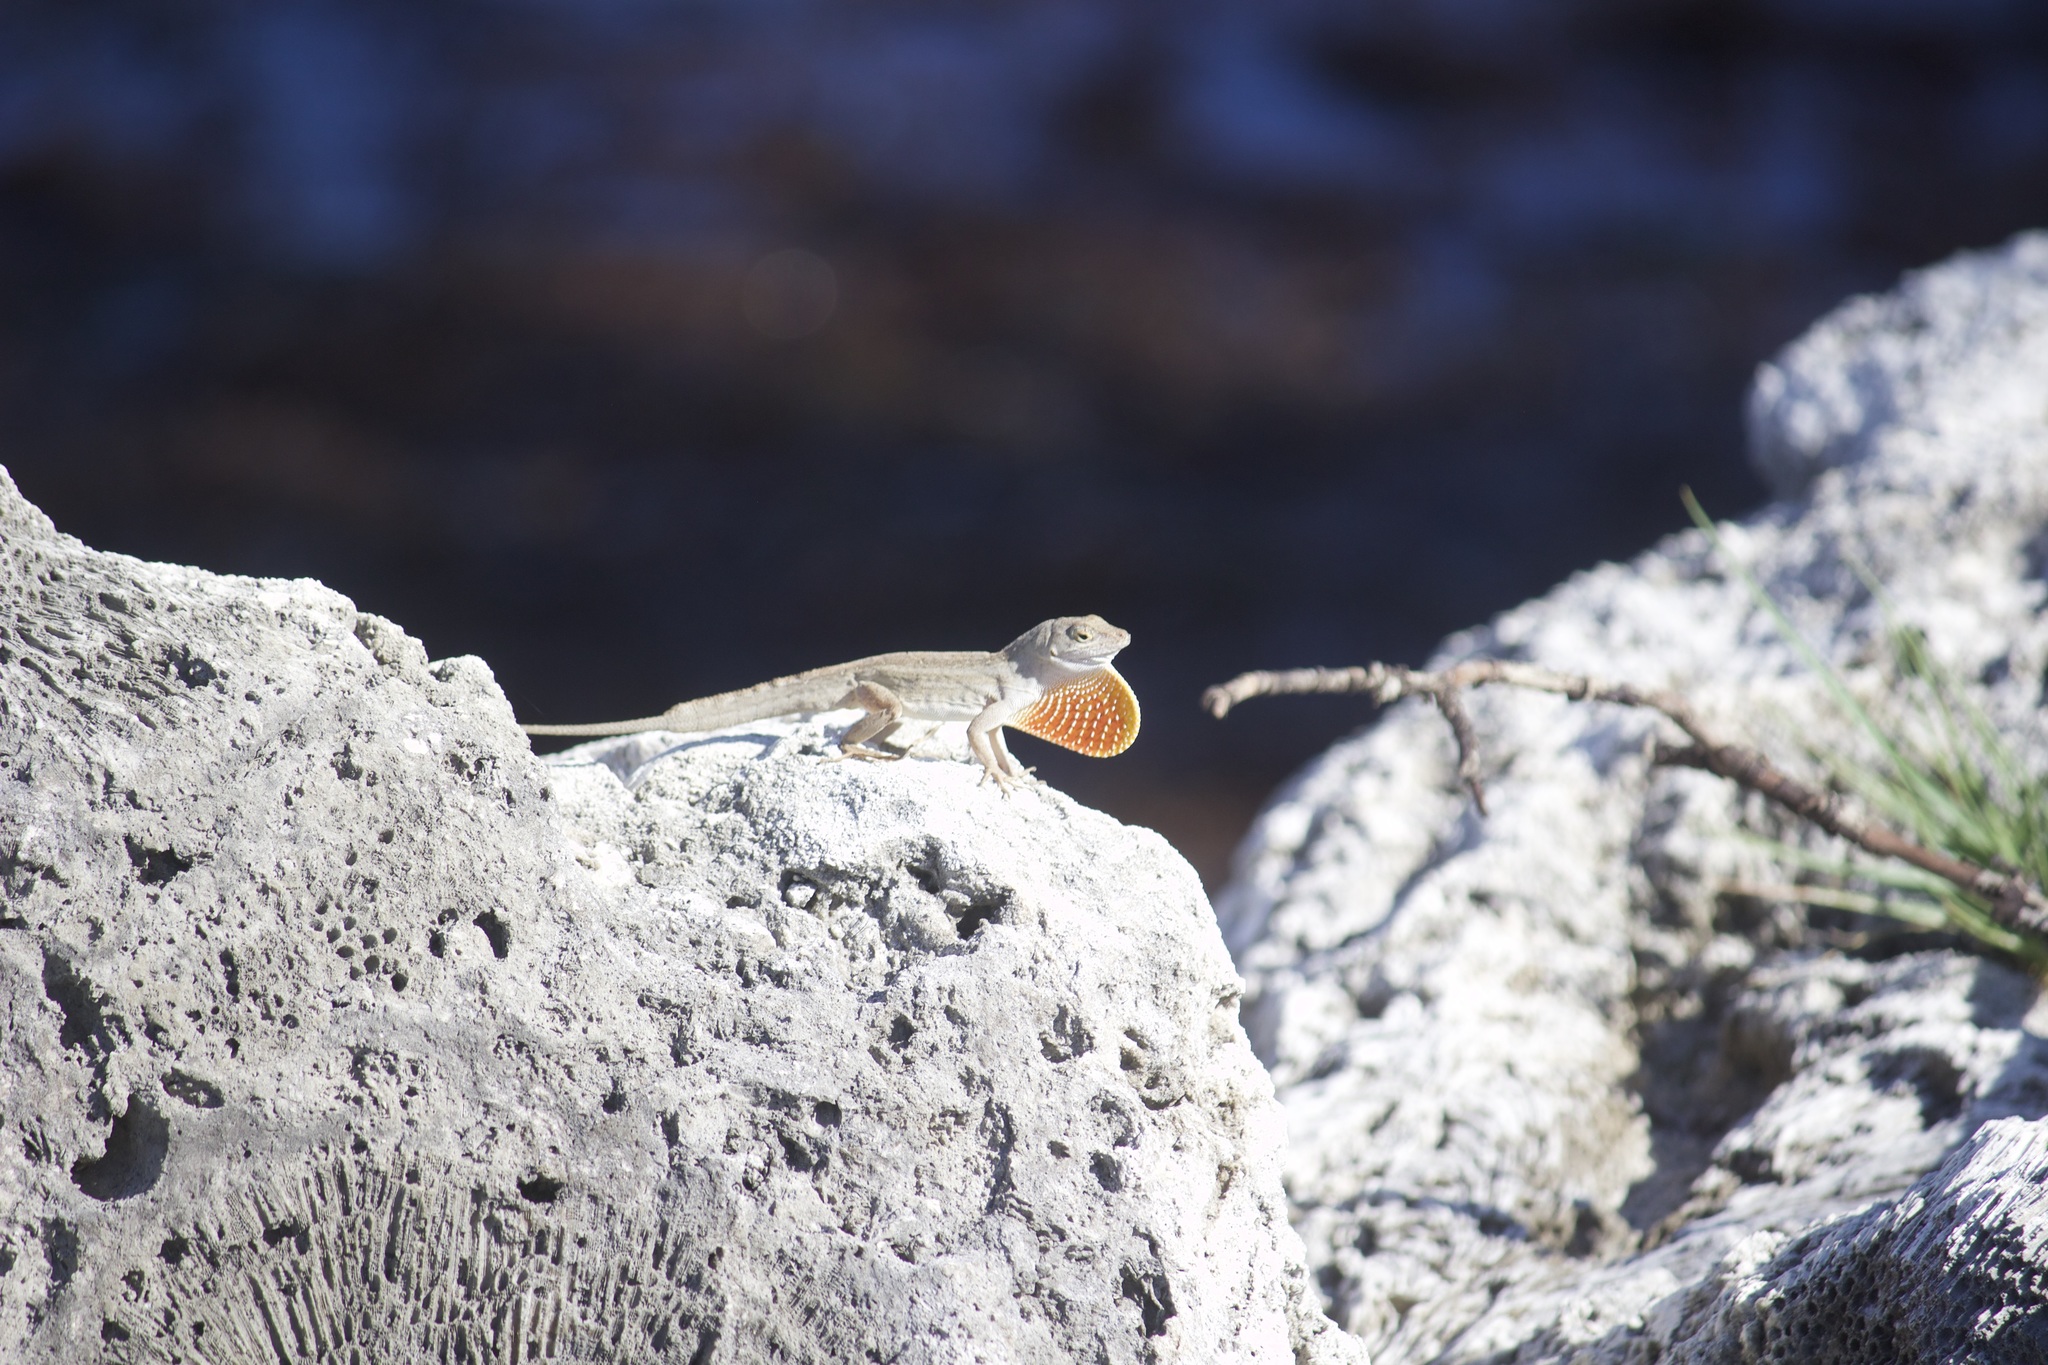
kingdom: Animalia
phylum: Chordata
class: Squamata
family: Dactyloidae
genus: Anolis
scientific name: Anolis sagrei
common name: Brown anole
